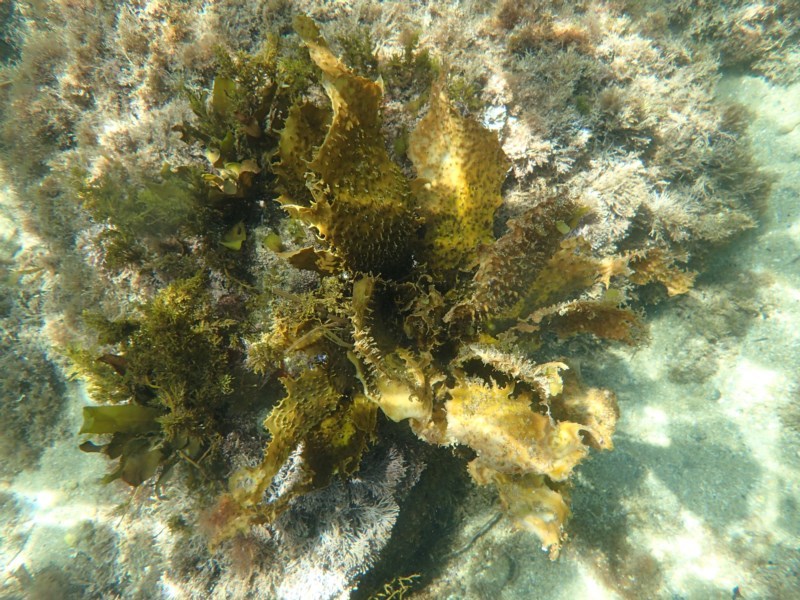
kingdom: Chromista
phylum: Ochrophyta
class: Phaeophyceae
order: Laminariales
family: Lessoniaceae
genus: Ecklonia
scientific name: Ecklonia radiata
